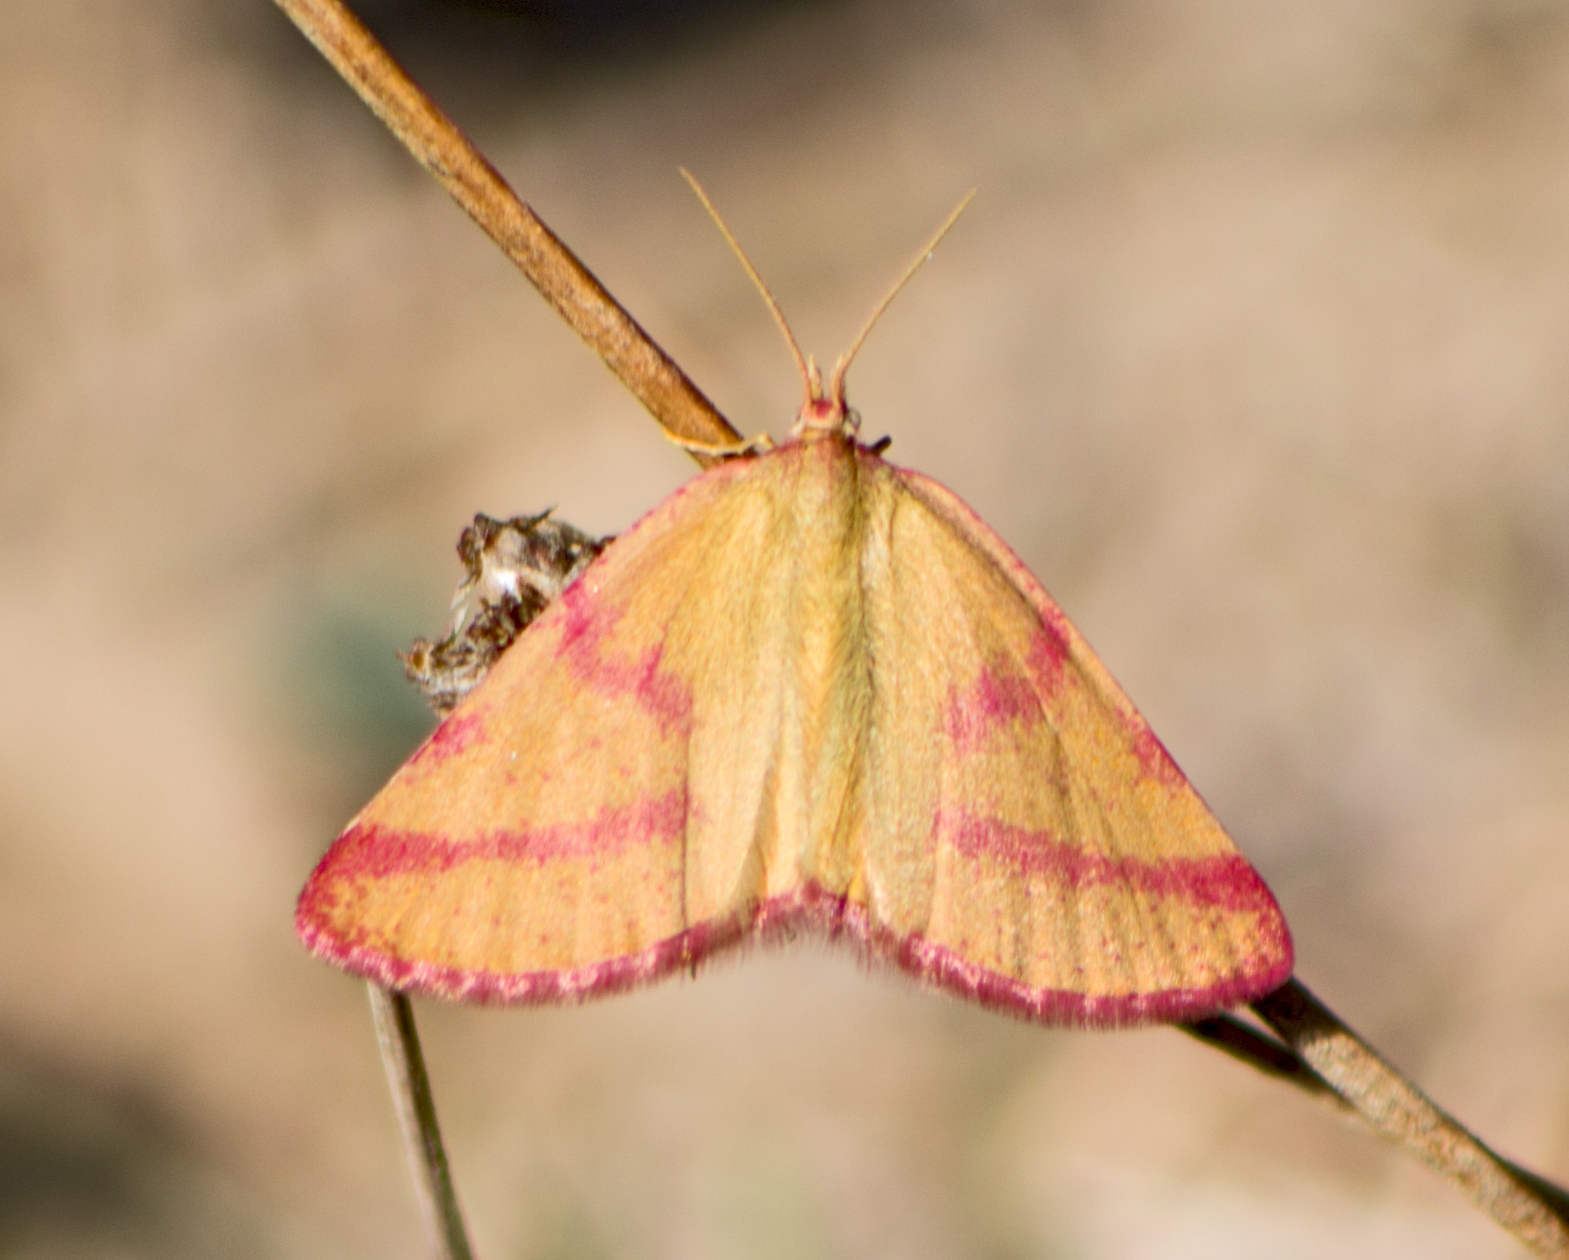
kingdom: Animalia
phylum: Arthropoda
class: Insecta
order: Lepidoptera
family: Geometridae
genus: Lythria
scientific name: Lythria purpuraria
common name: Purple-barred yellow
